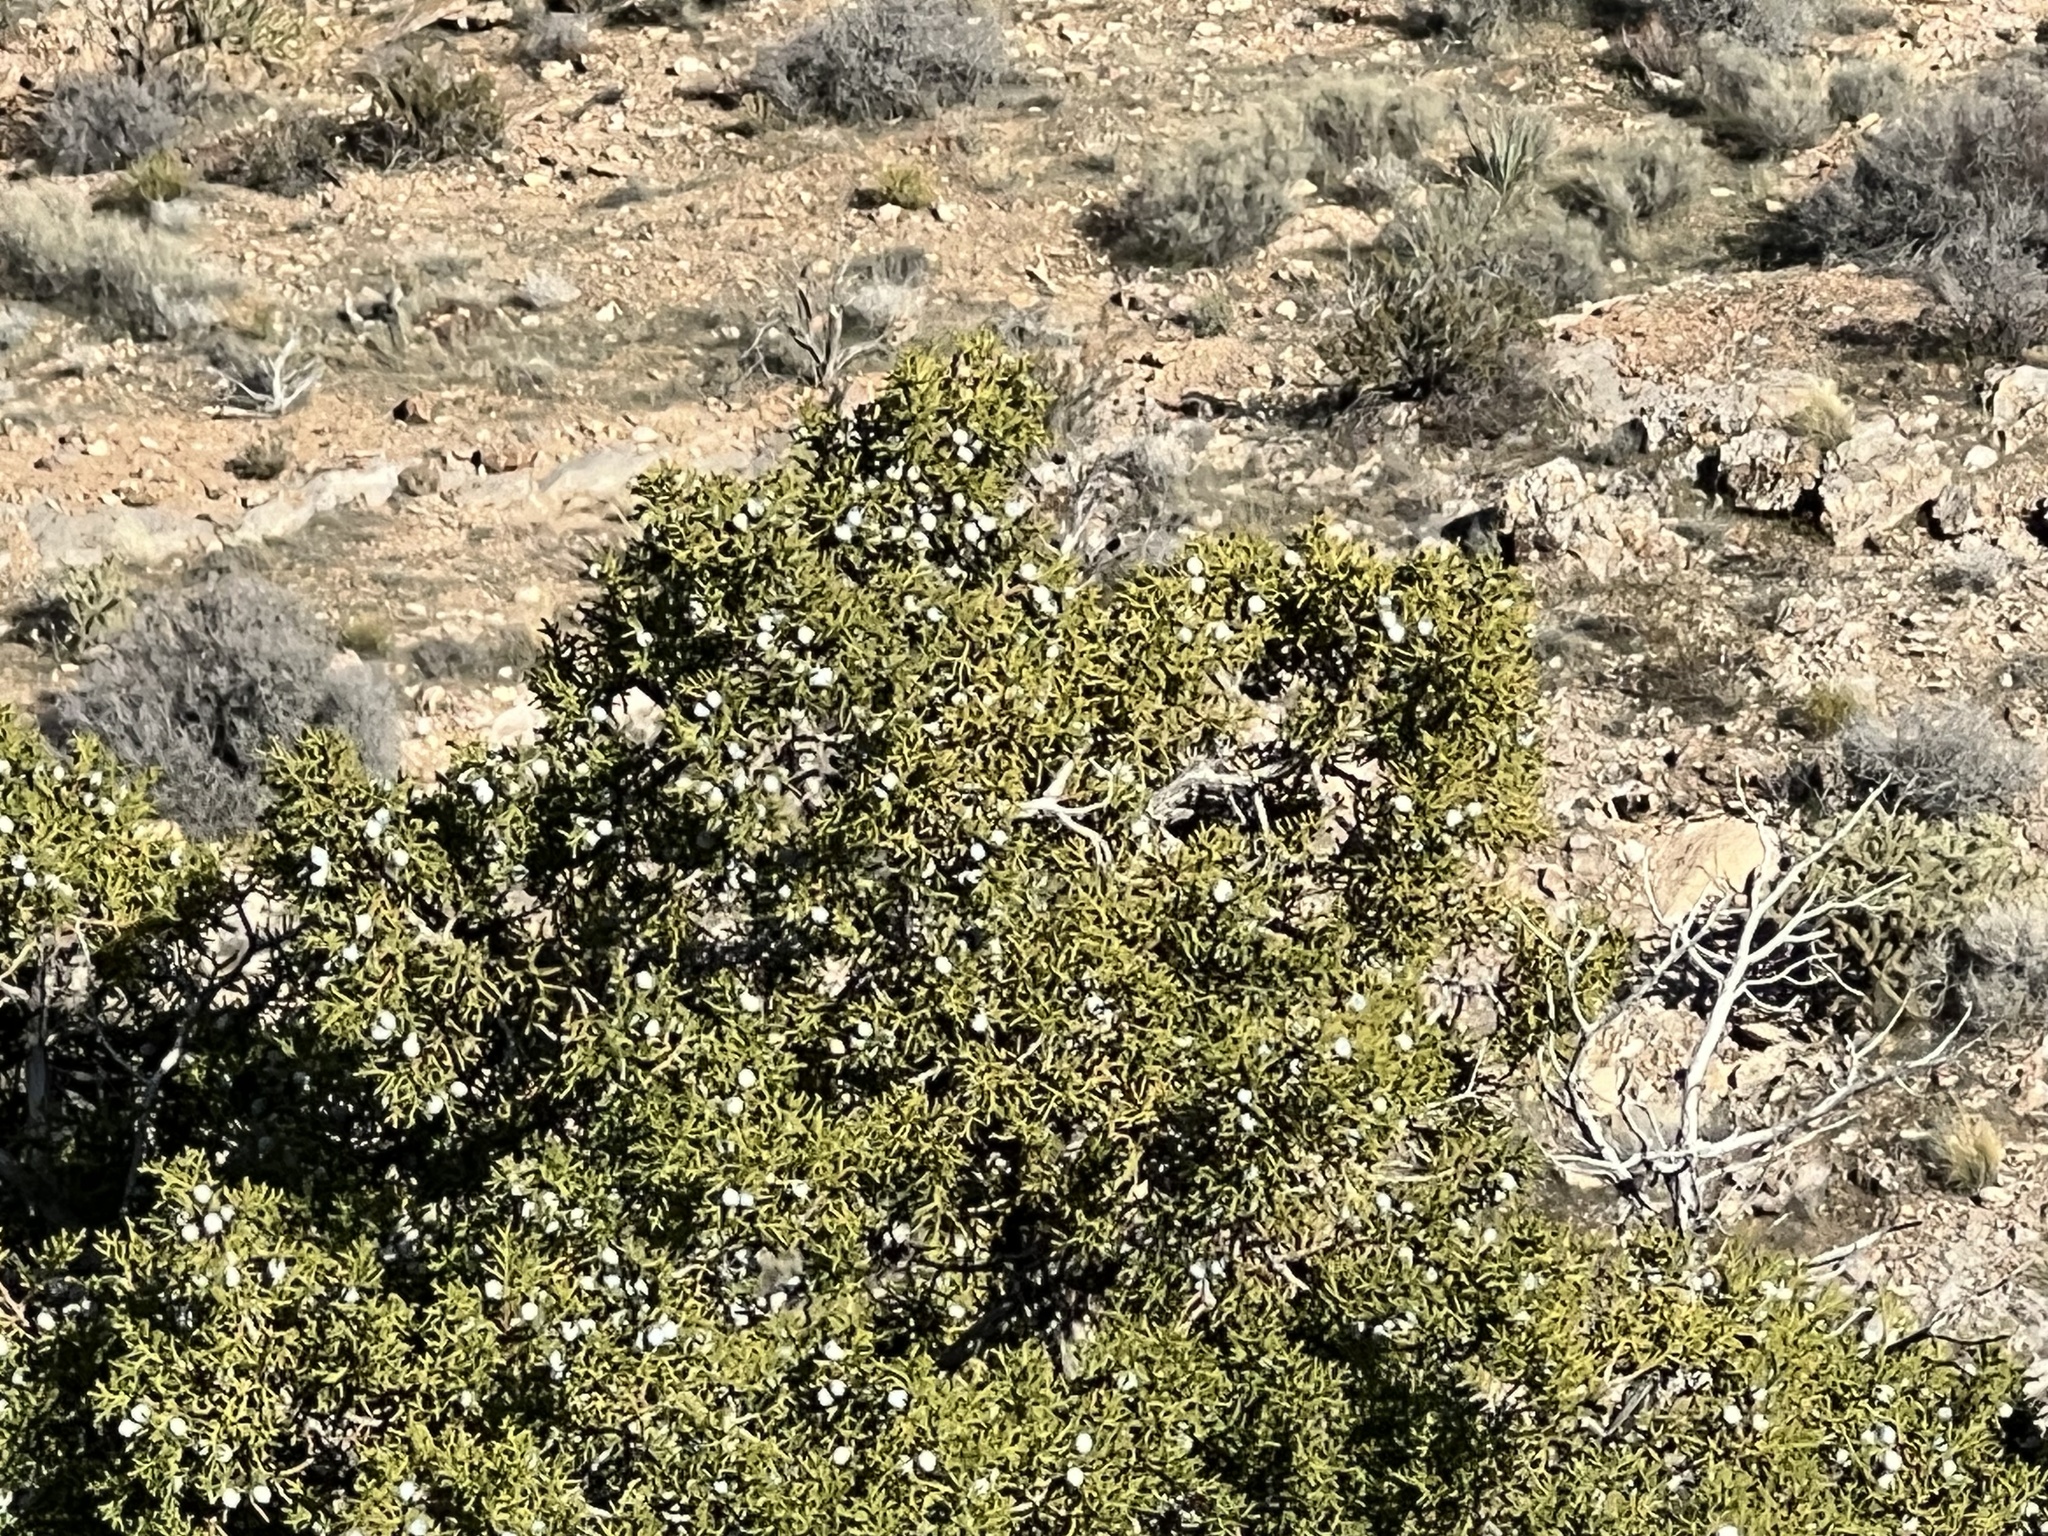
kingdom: Plantae
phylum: Tracheophyta
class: Pinopsida
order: Pinales
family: Cupressaceae
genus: Juniperus
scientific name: Juniperus osteosperma
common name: Utah juniper
